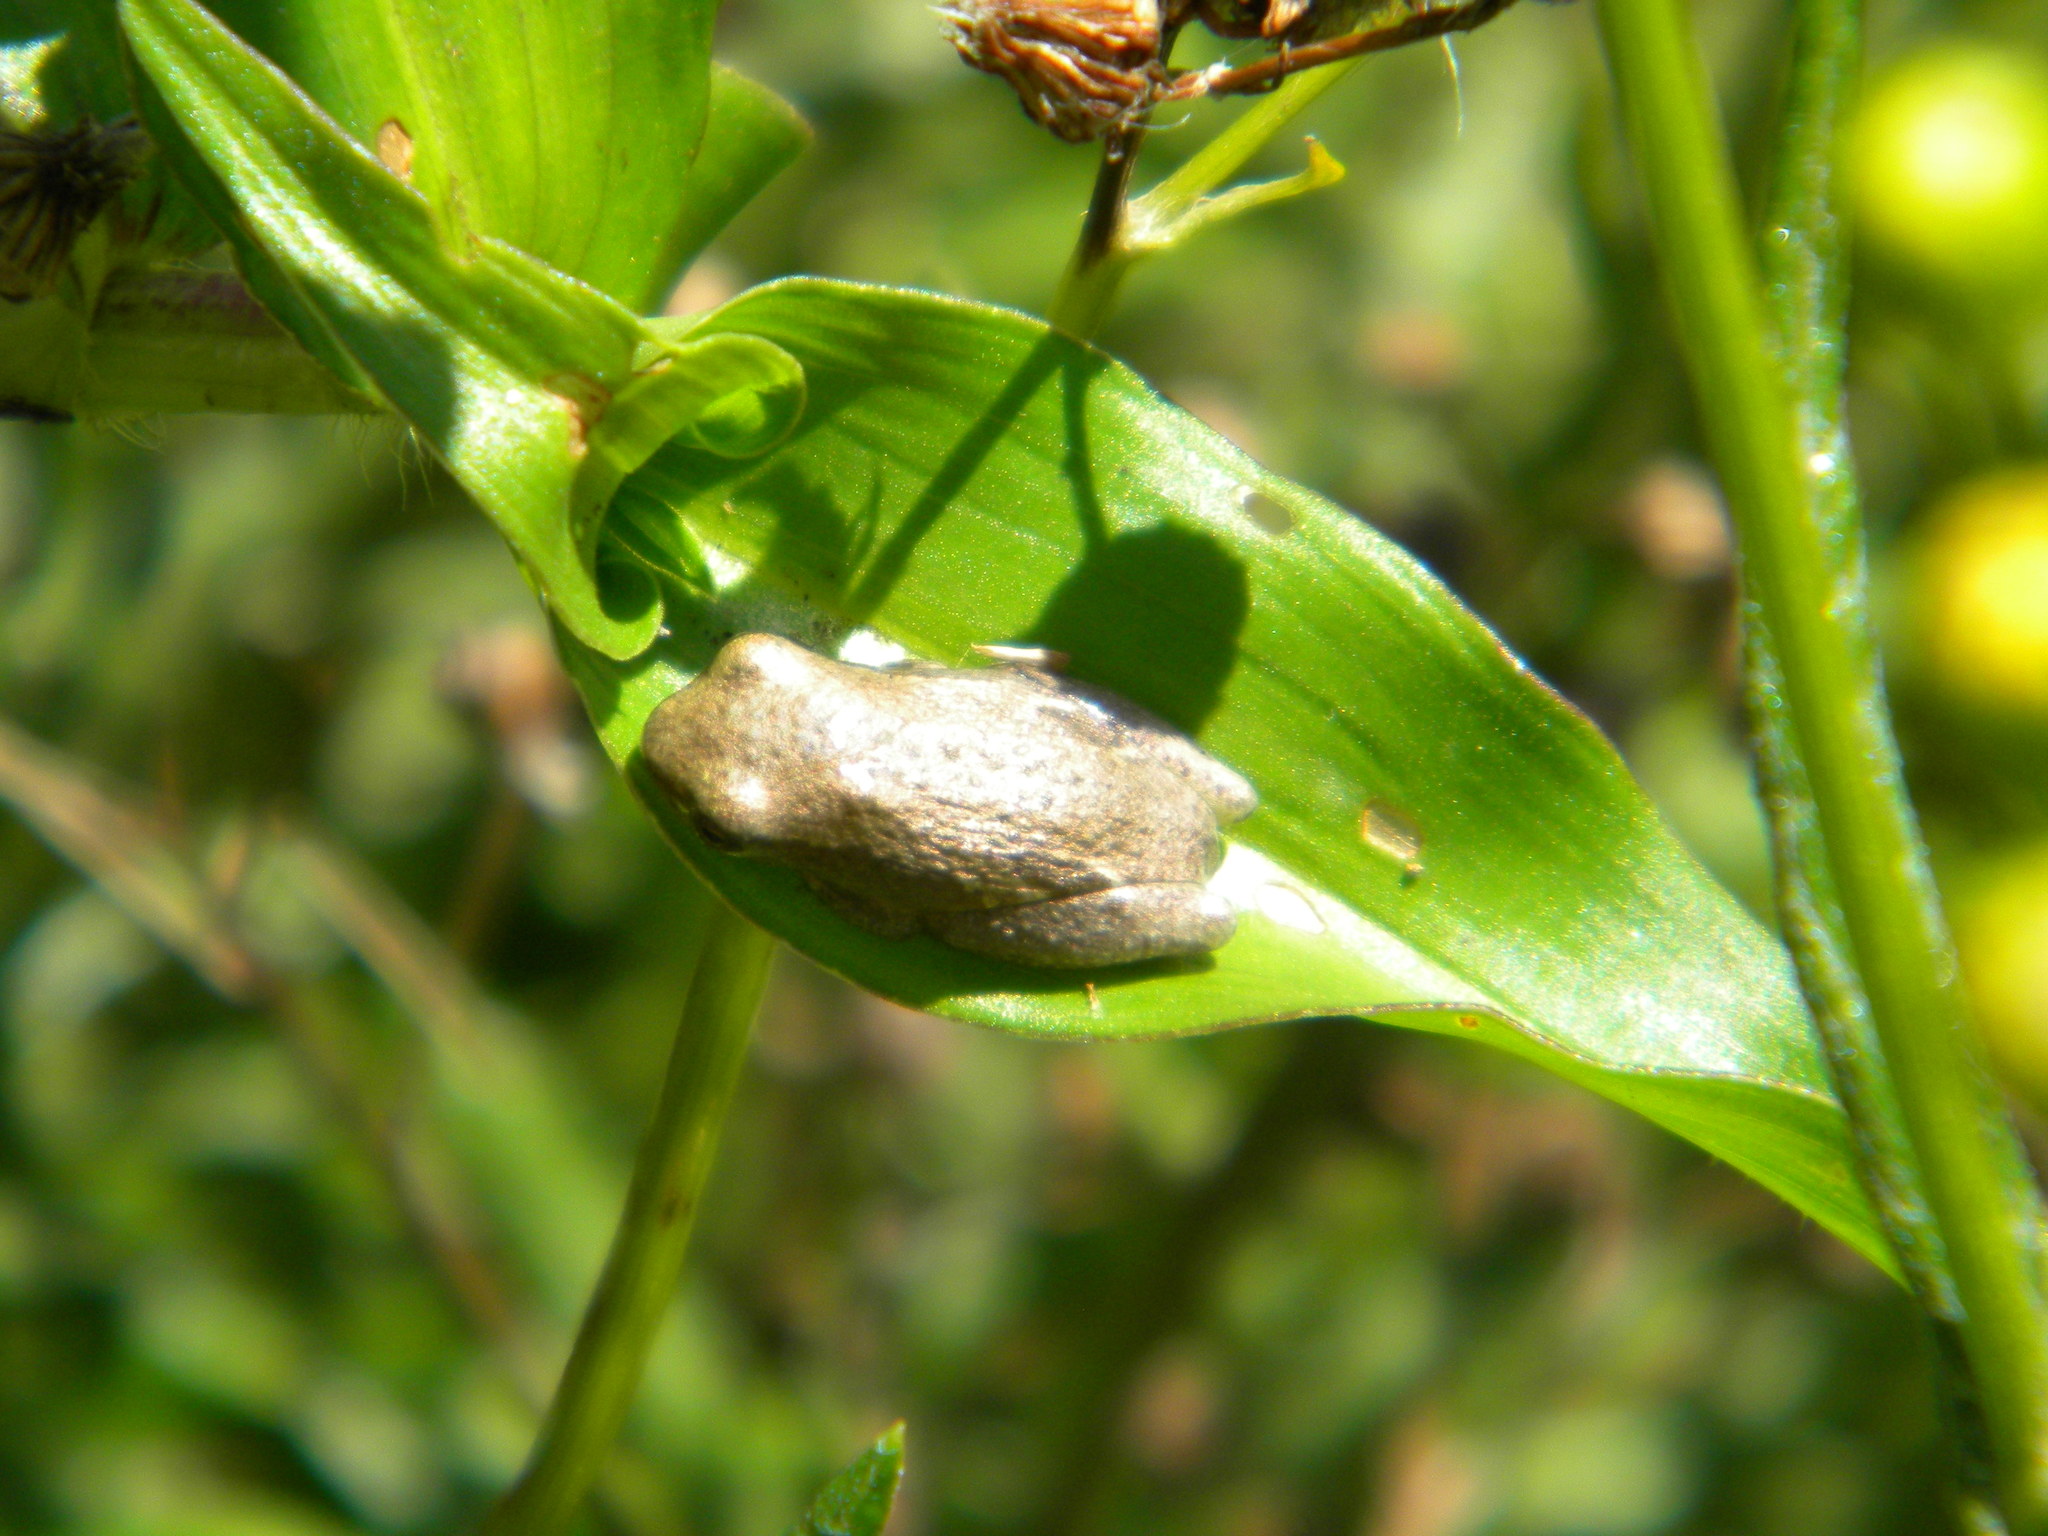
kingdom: Animalia
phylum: Chordata
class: Amphibia
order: Anura
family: Hyperoliidae
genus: Hyperolius
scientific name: Hyperolius marmoratus
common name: Painted reed frog
